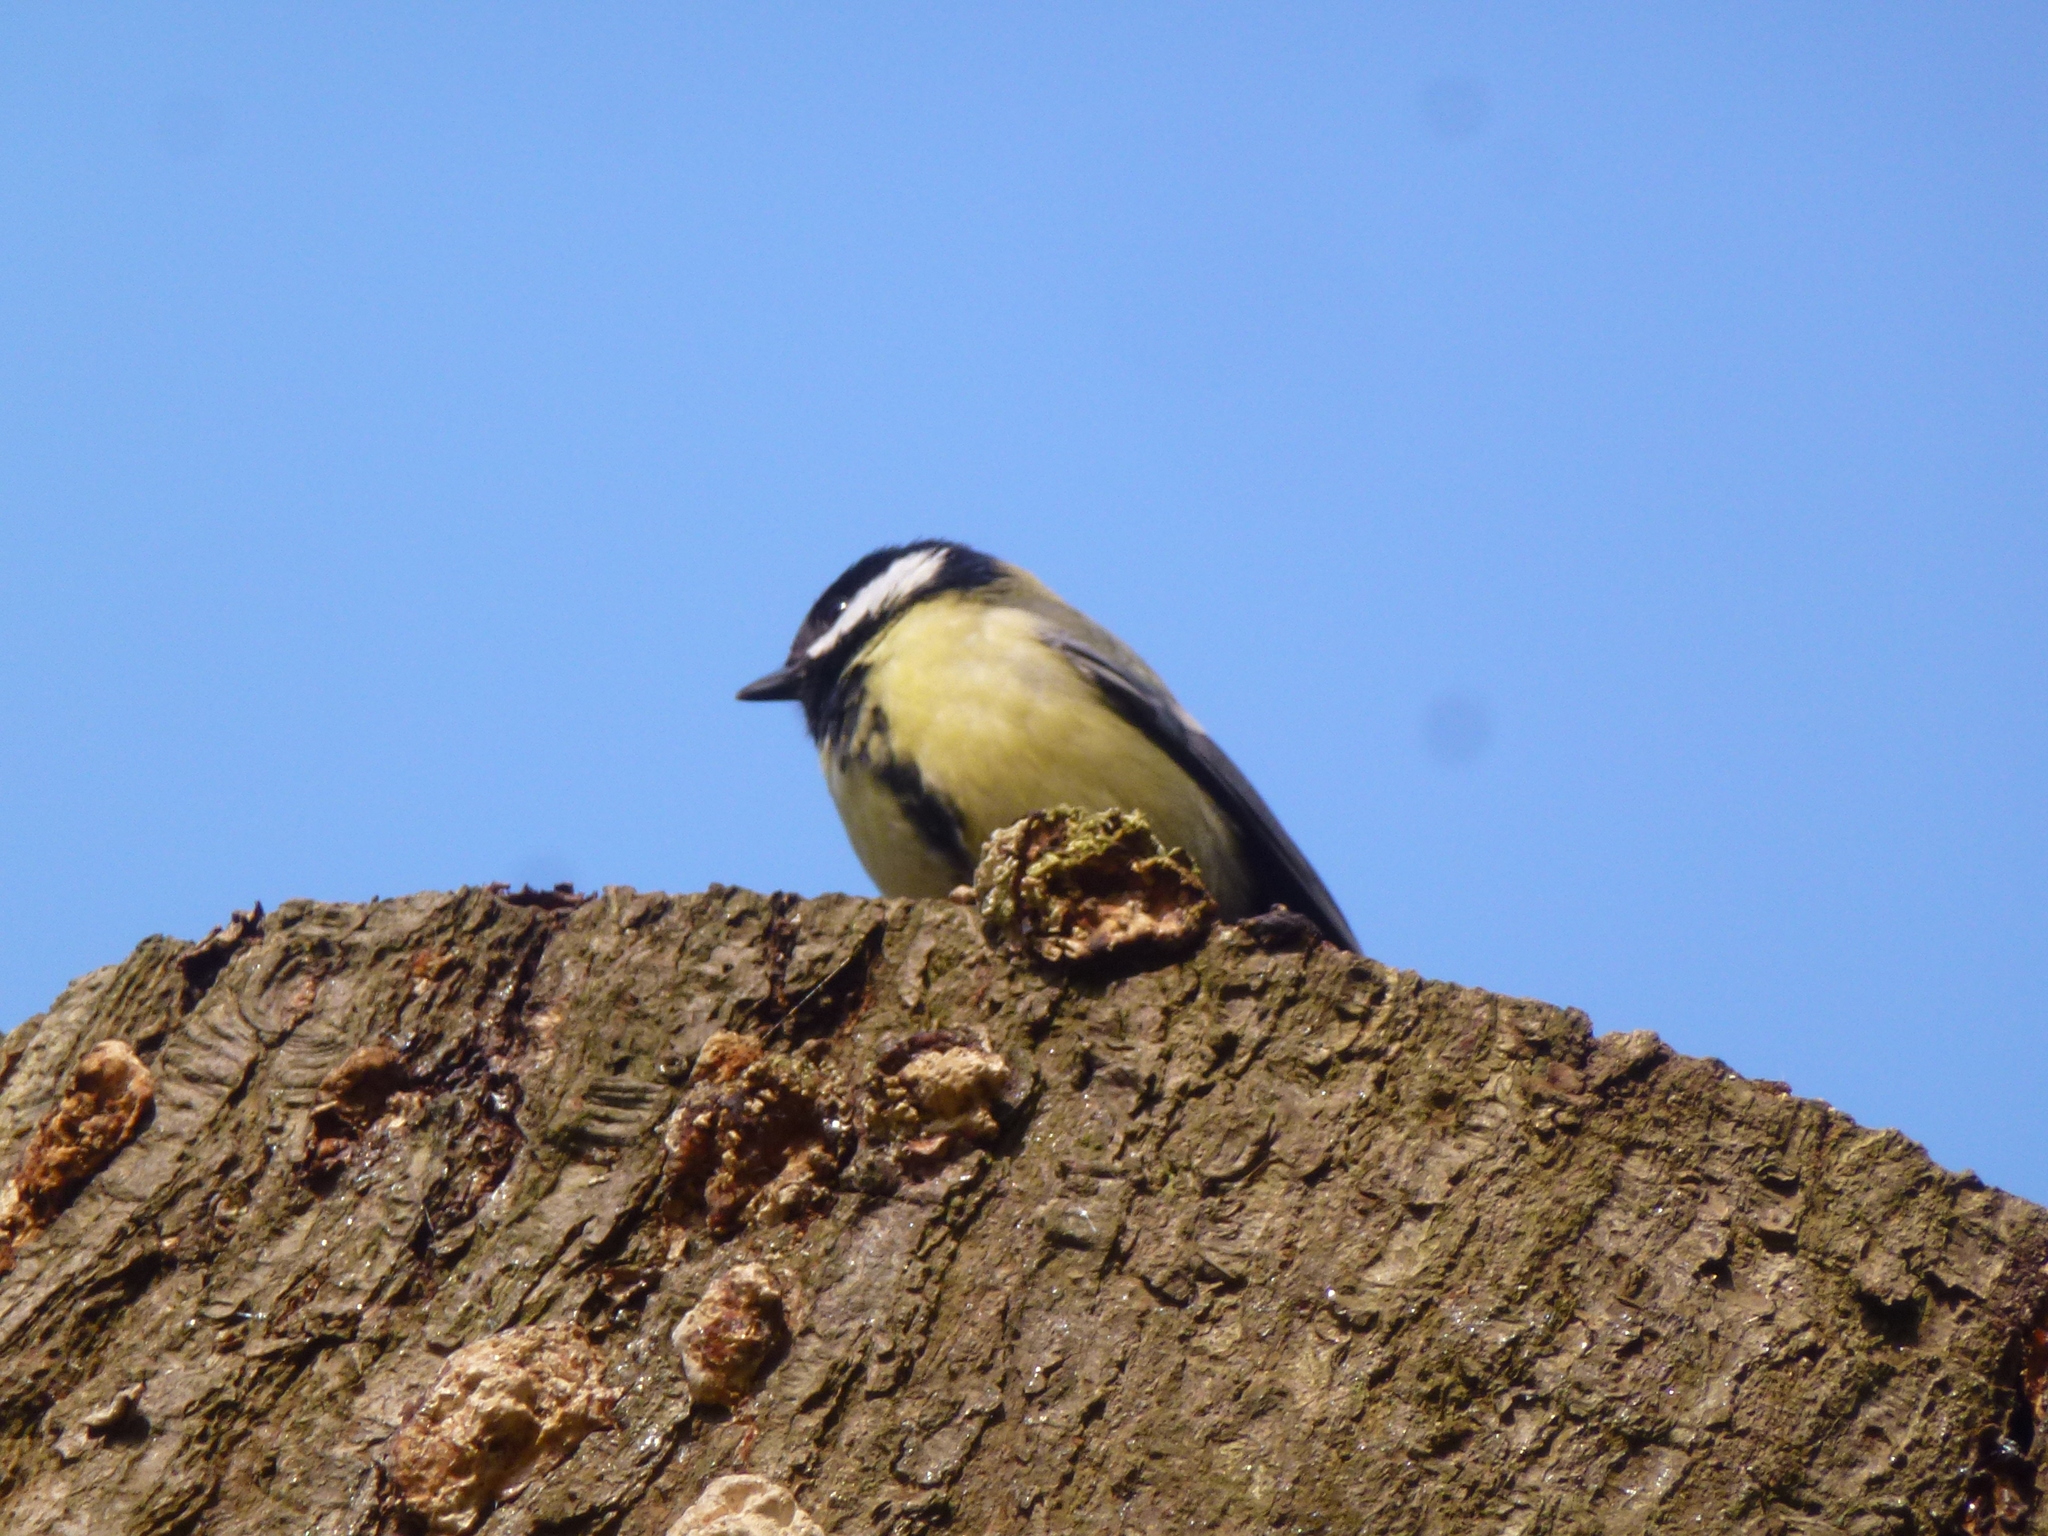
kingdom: Animalia
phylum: Chordata
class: Aves
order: Passeriformes
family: Paridae
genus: Parus
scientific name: Parus major
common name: Great tit
